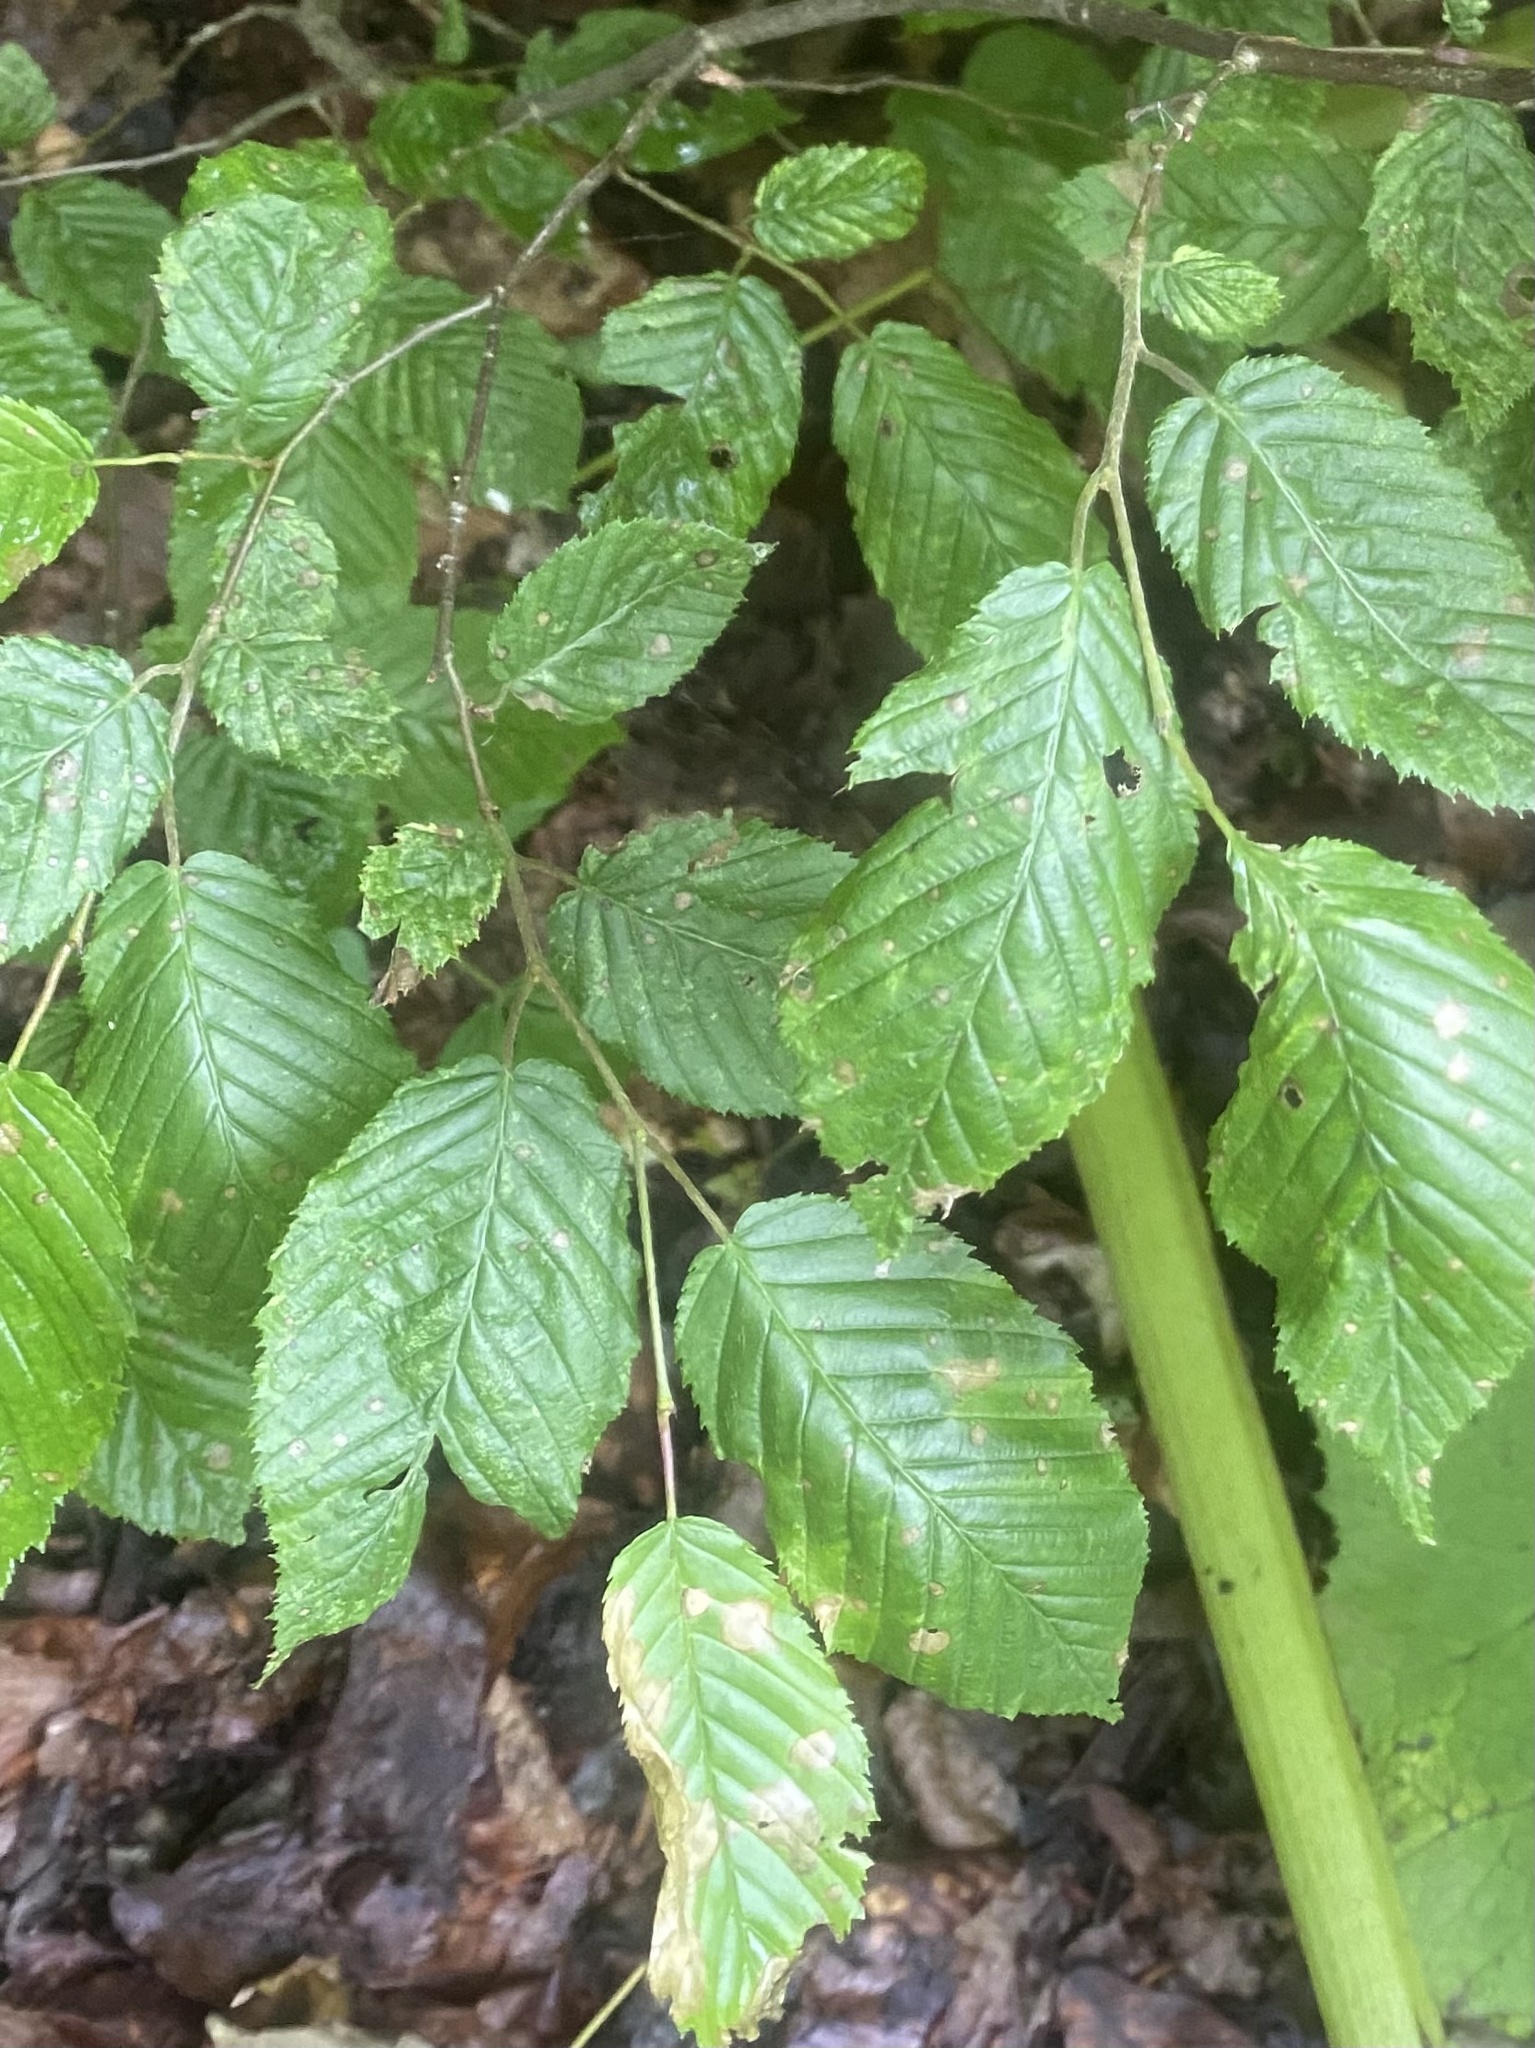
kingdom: Plantae
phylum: Tracheophyta
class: Magnoliopsida
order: Fagales
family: Betulaceae
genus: Carpinus
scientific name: Carpinus betulus
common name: Hornbeam
